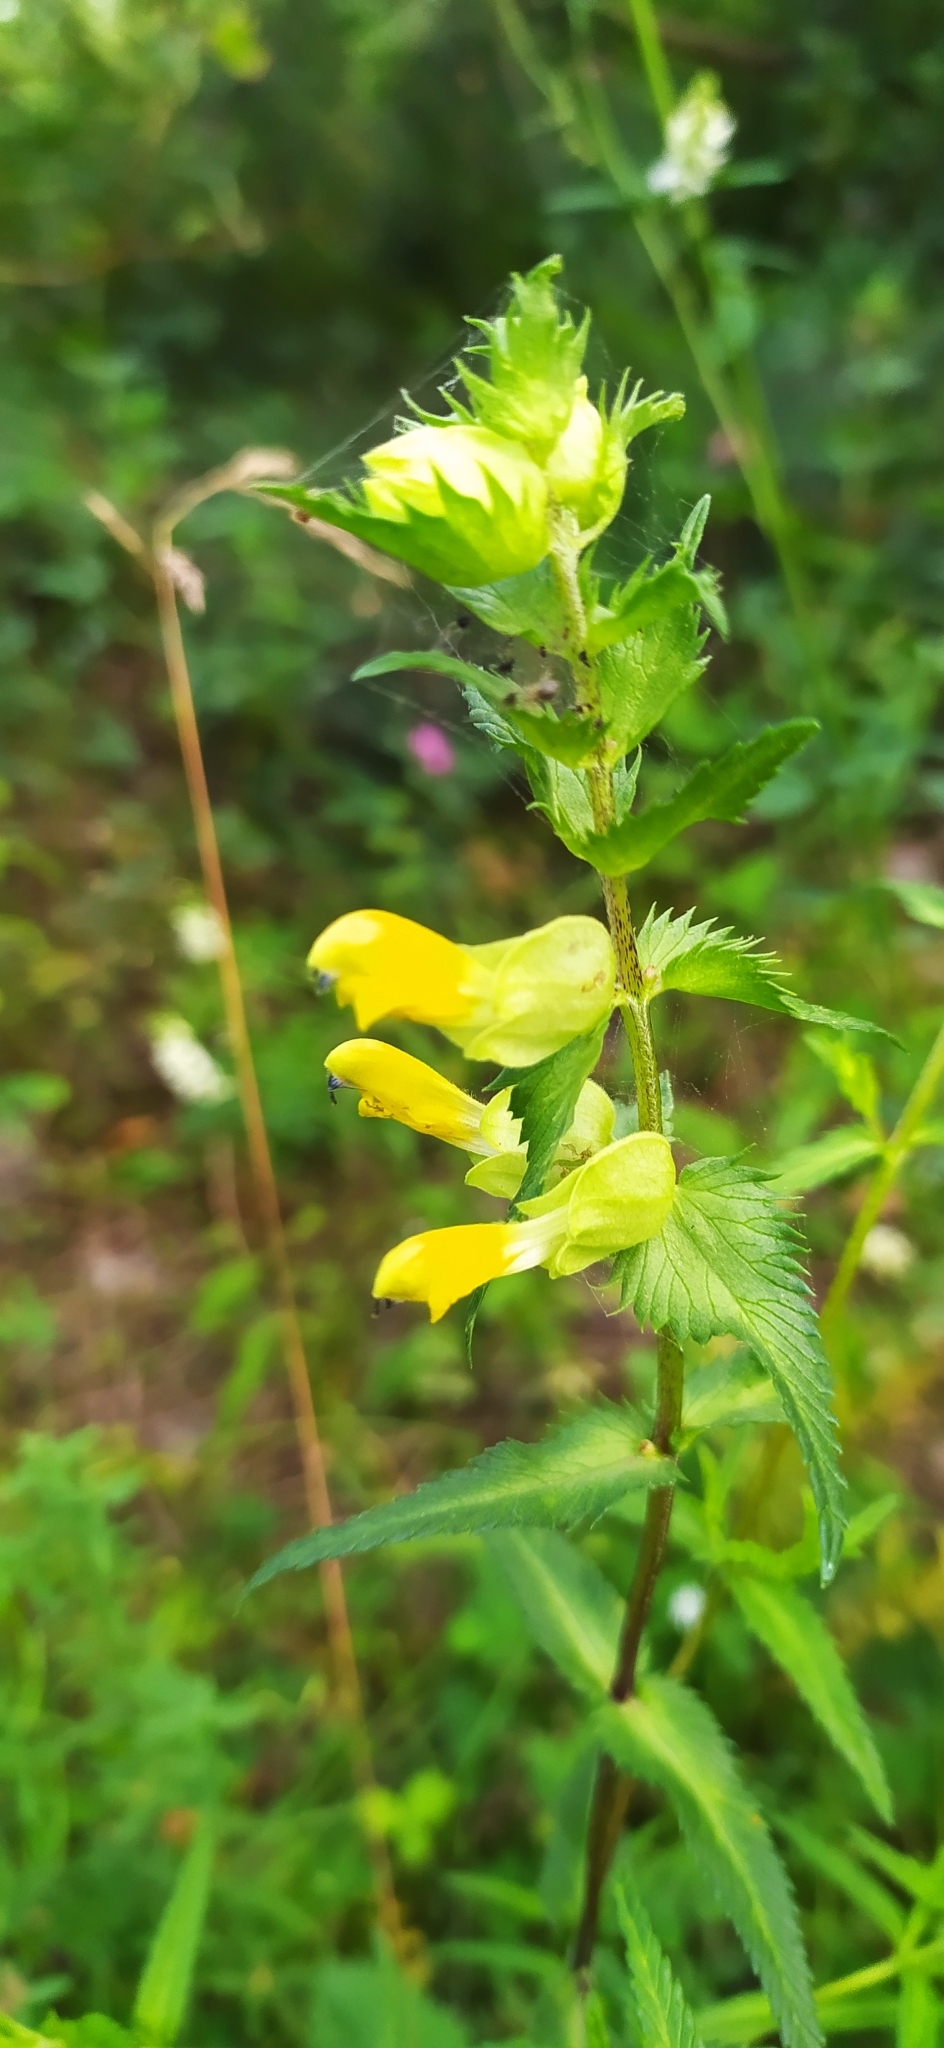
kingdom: Plantae
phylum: Tracheophyta
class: Magnoliopsida
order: Lamiales
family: Orobanchaceae
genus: Rhinanthus
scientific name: Rhinanthus serotinus
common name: Late-flowering yellow rattle
